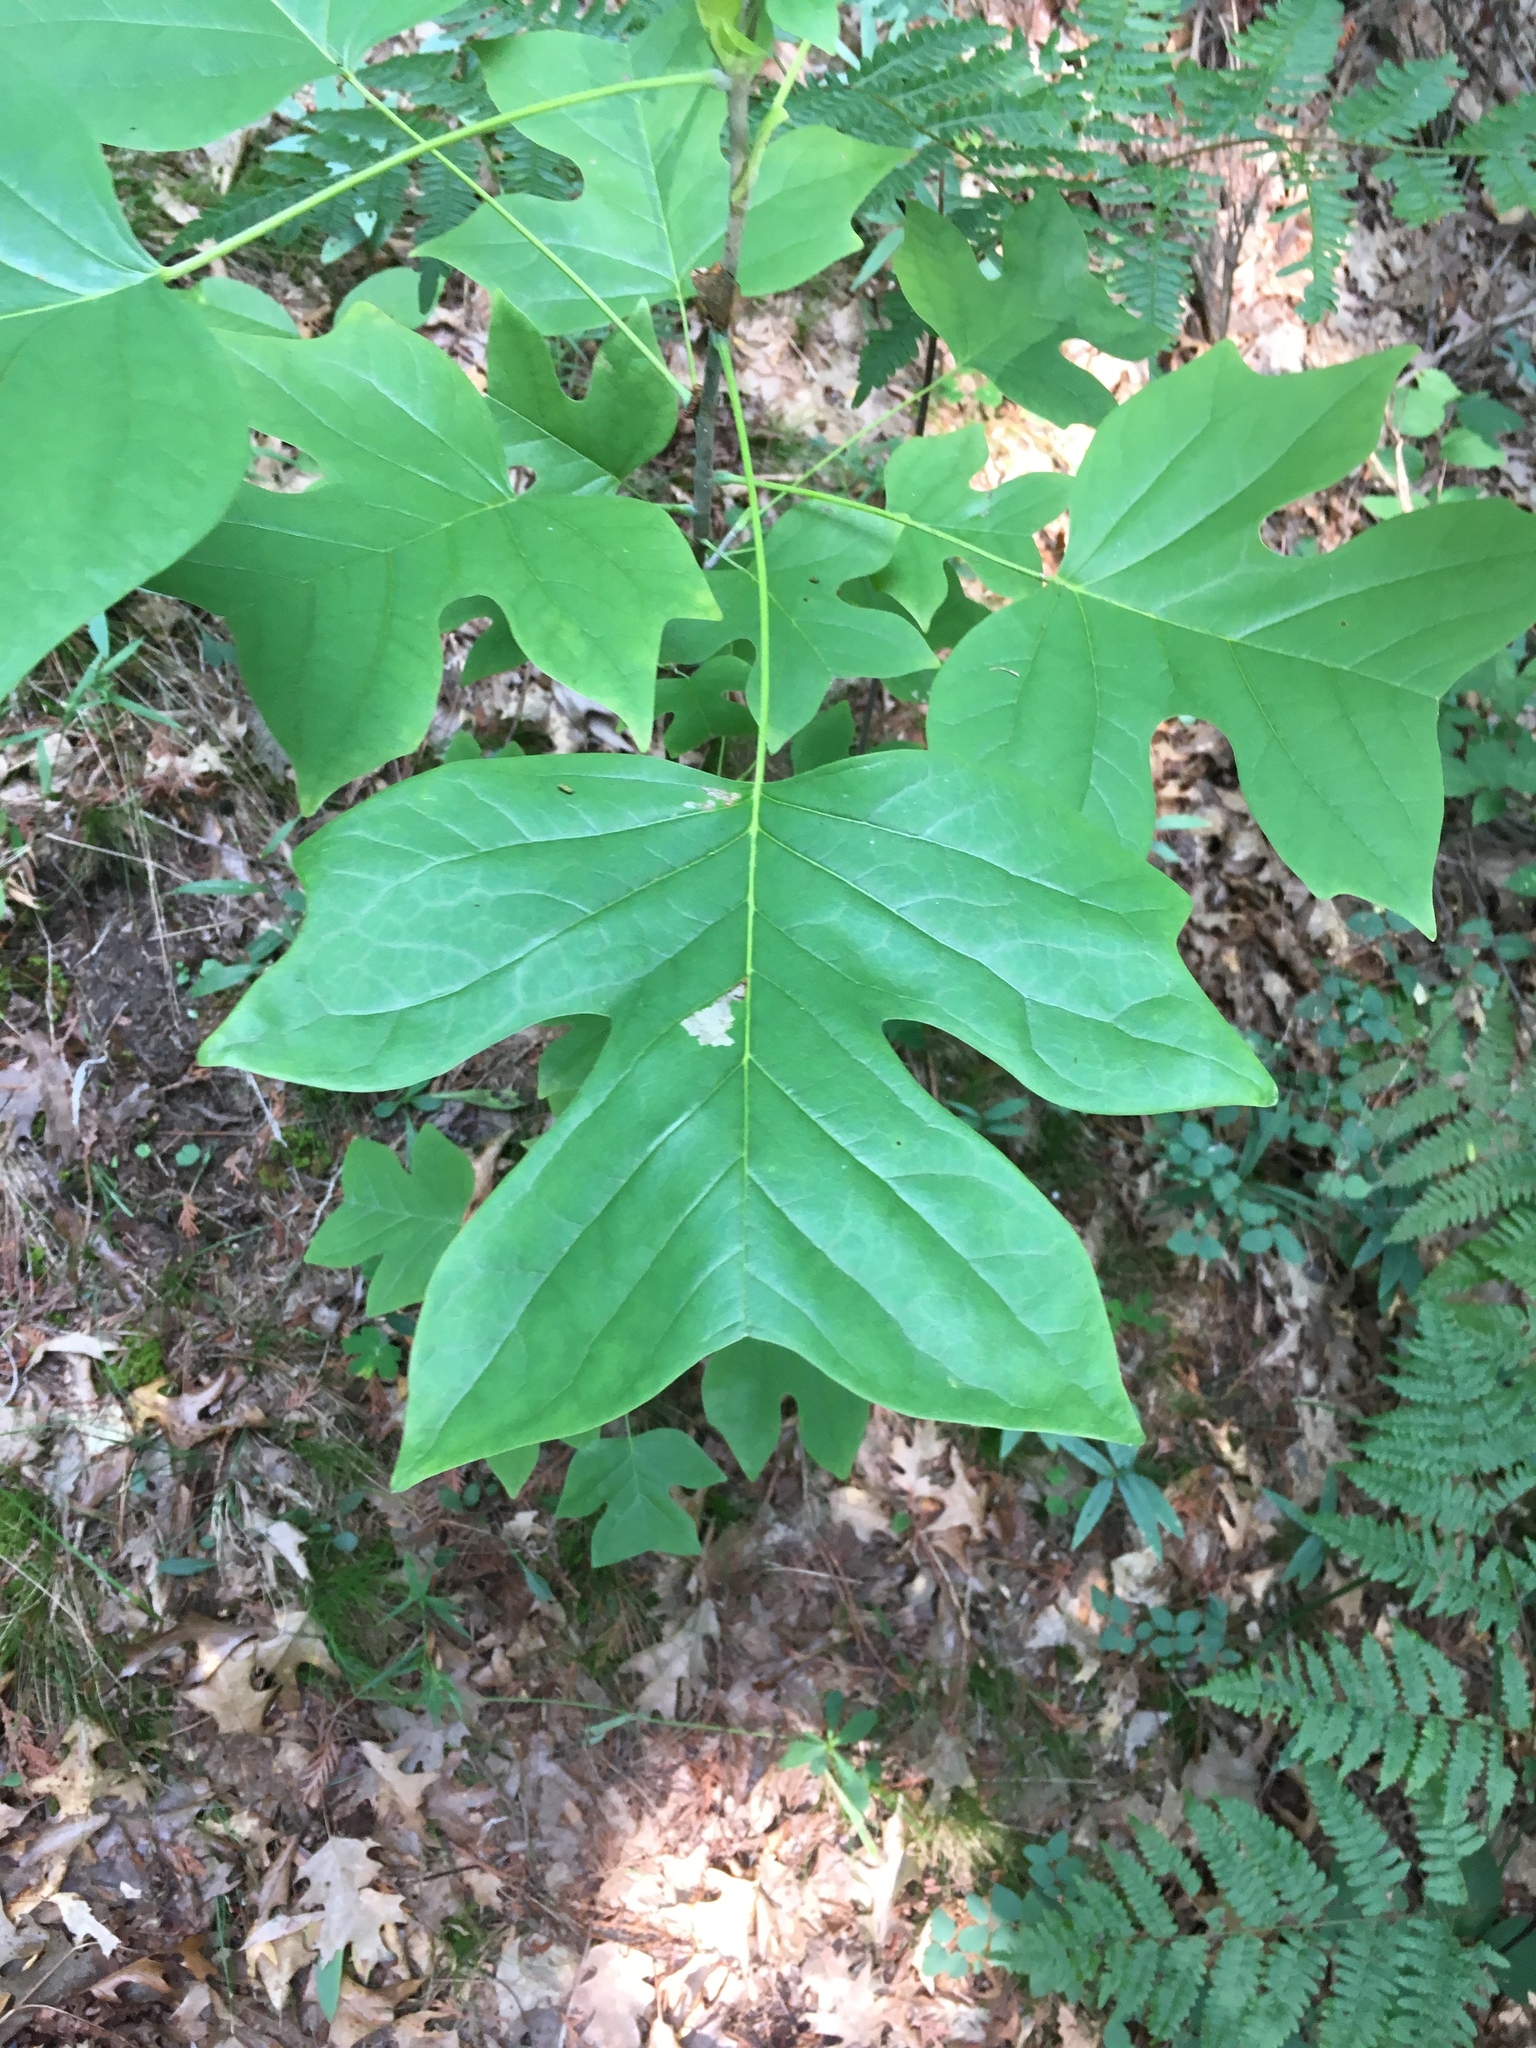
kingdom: Plantae
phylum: Tracheophyta
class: Magnoliopsida
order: Magnoliales
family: Magnoliaceae
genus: Liriodendron
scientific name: Liriodendron tulipifera
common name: Tulip tree
